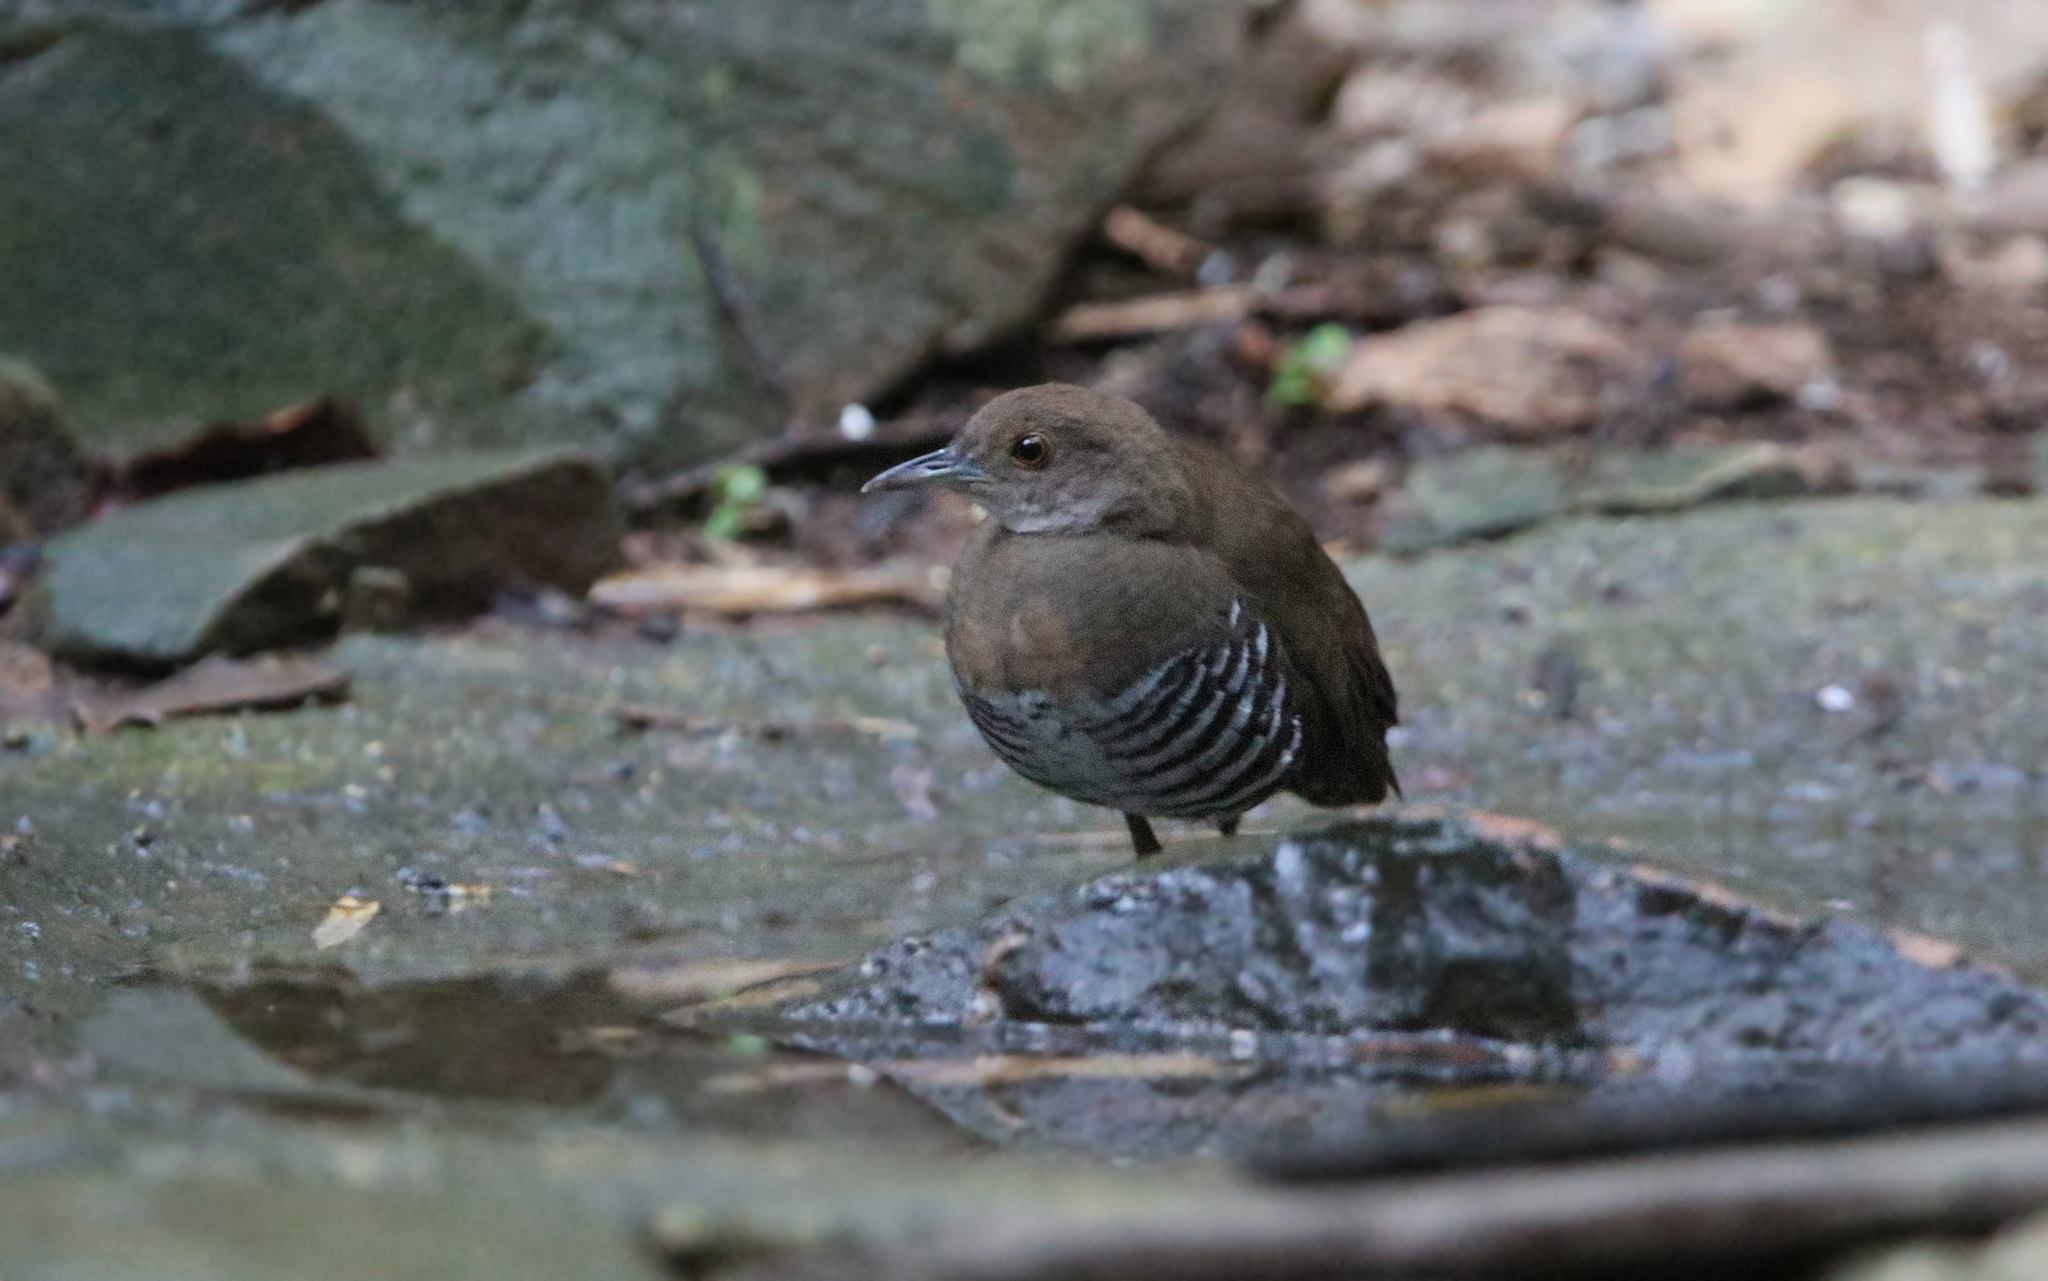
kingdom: Animalia
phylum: Chordata
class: Aves
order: Gruiformes
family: Rallidae
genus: Rallina
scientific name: Rallina eurizonoides
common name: Slaty-legged crake
